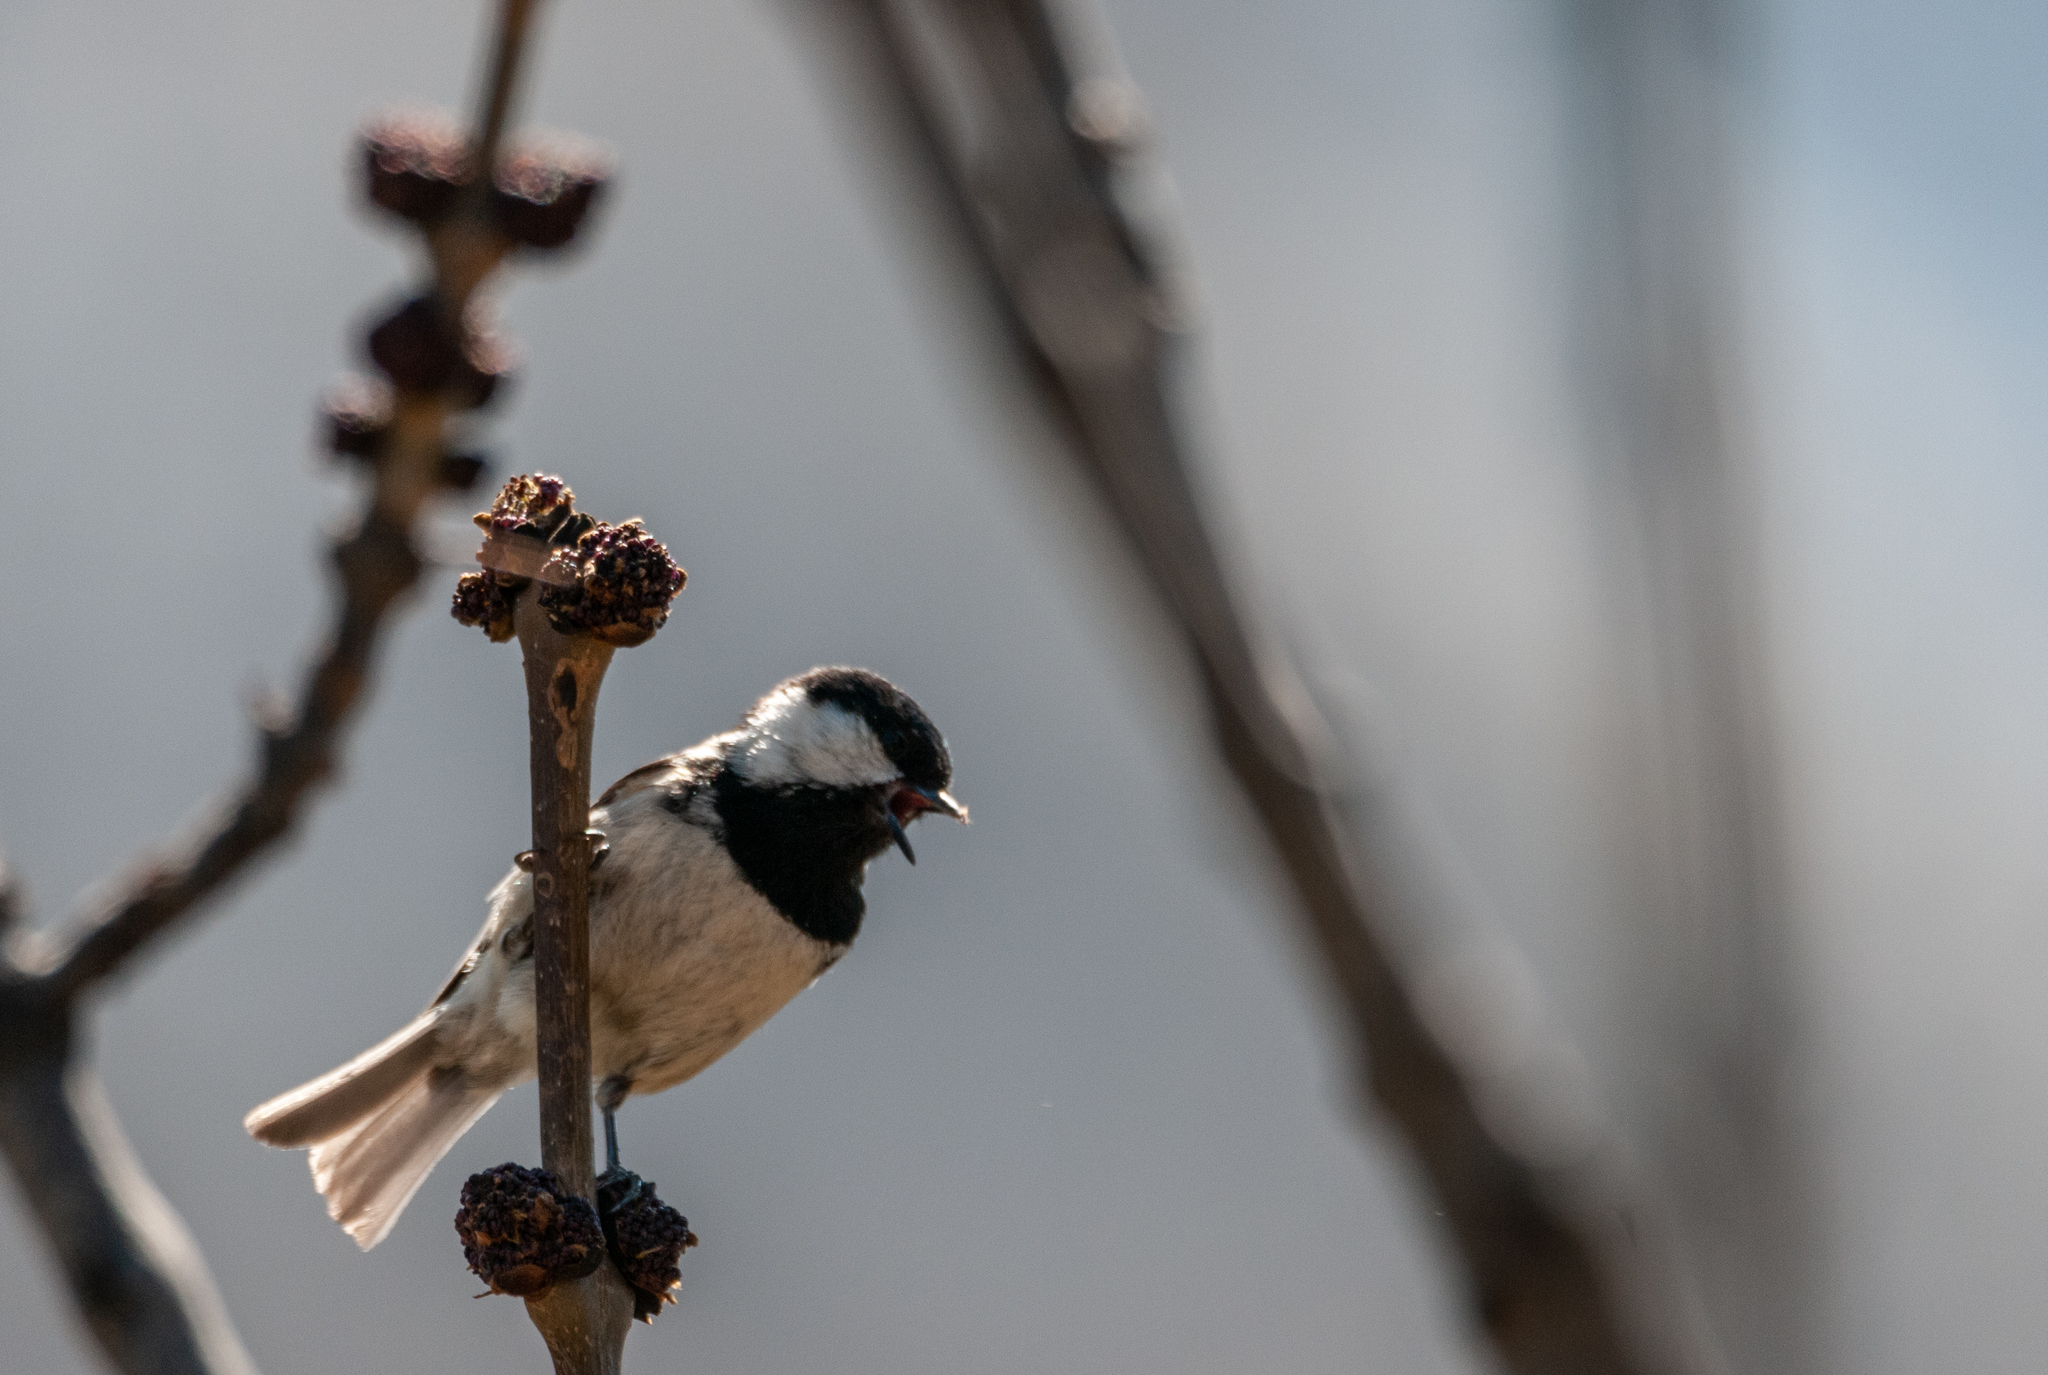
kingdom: Animalia
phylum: Chordata
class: Aves
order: Passeriformes
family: Paridae
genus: Periparus
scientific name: Periparus ater
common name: Coal tit
